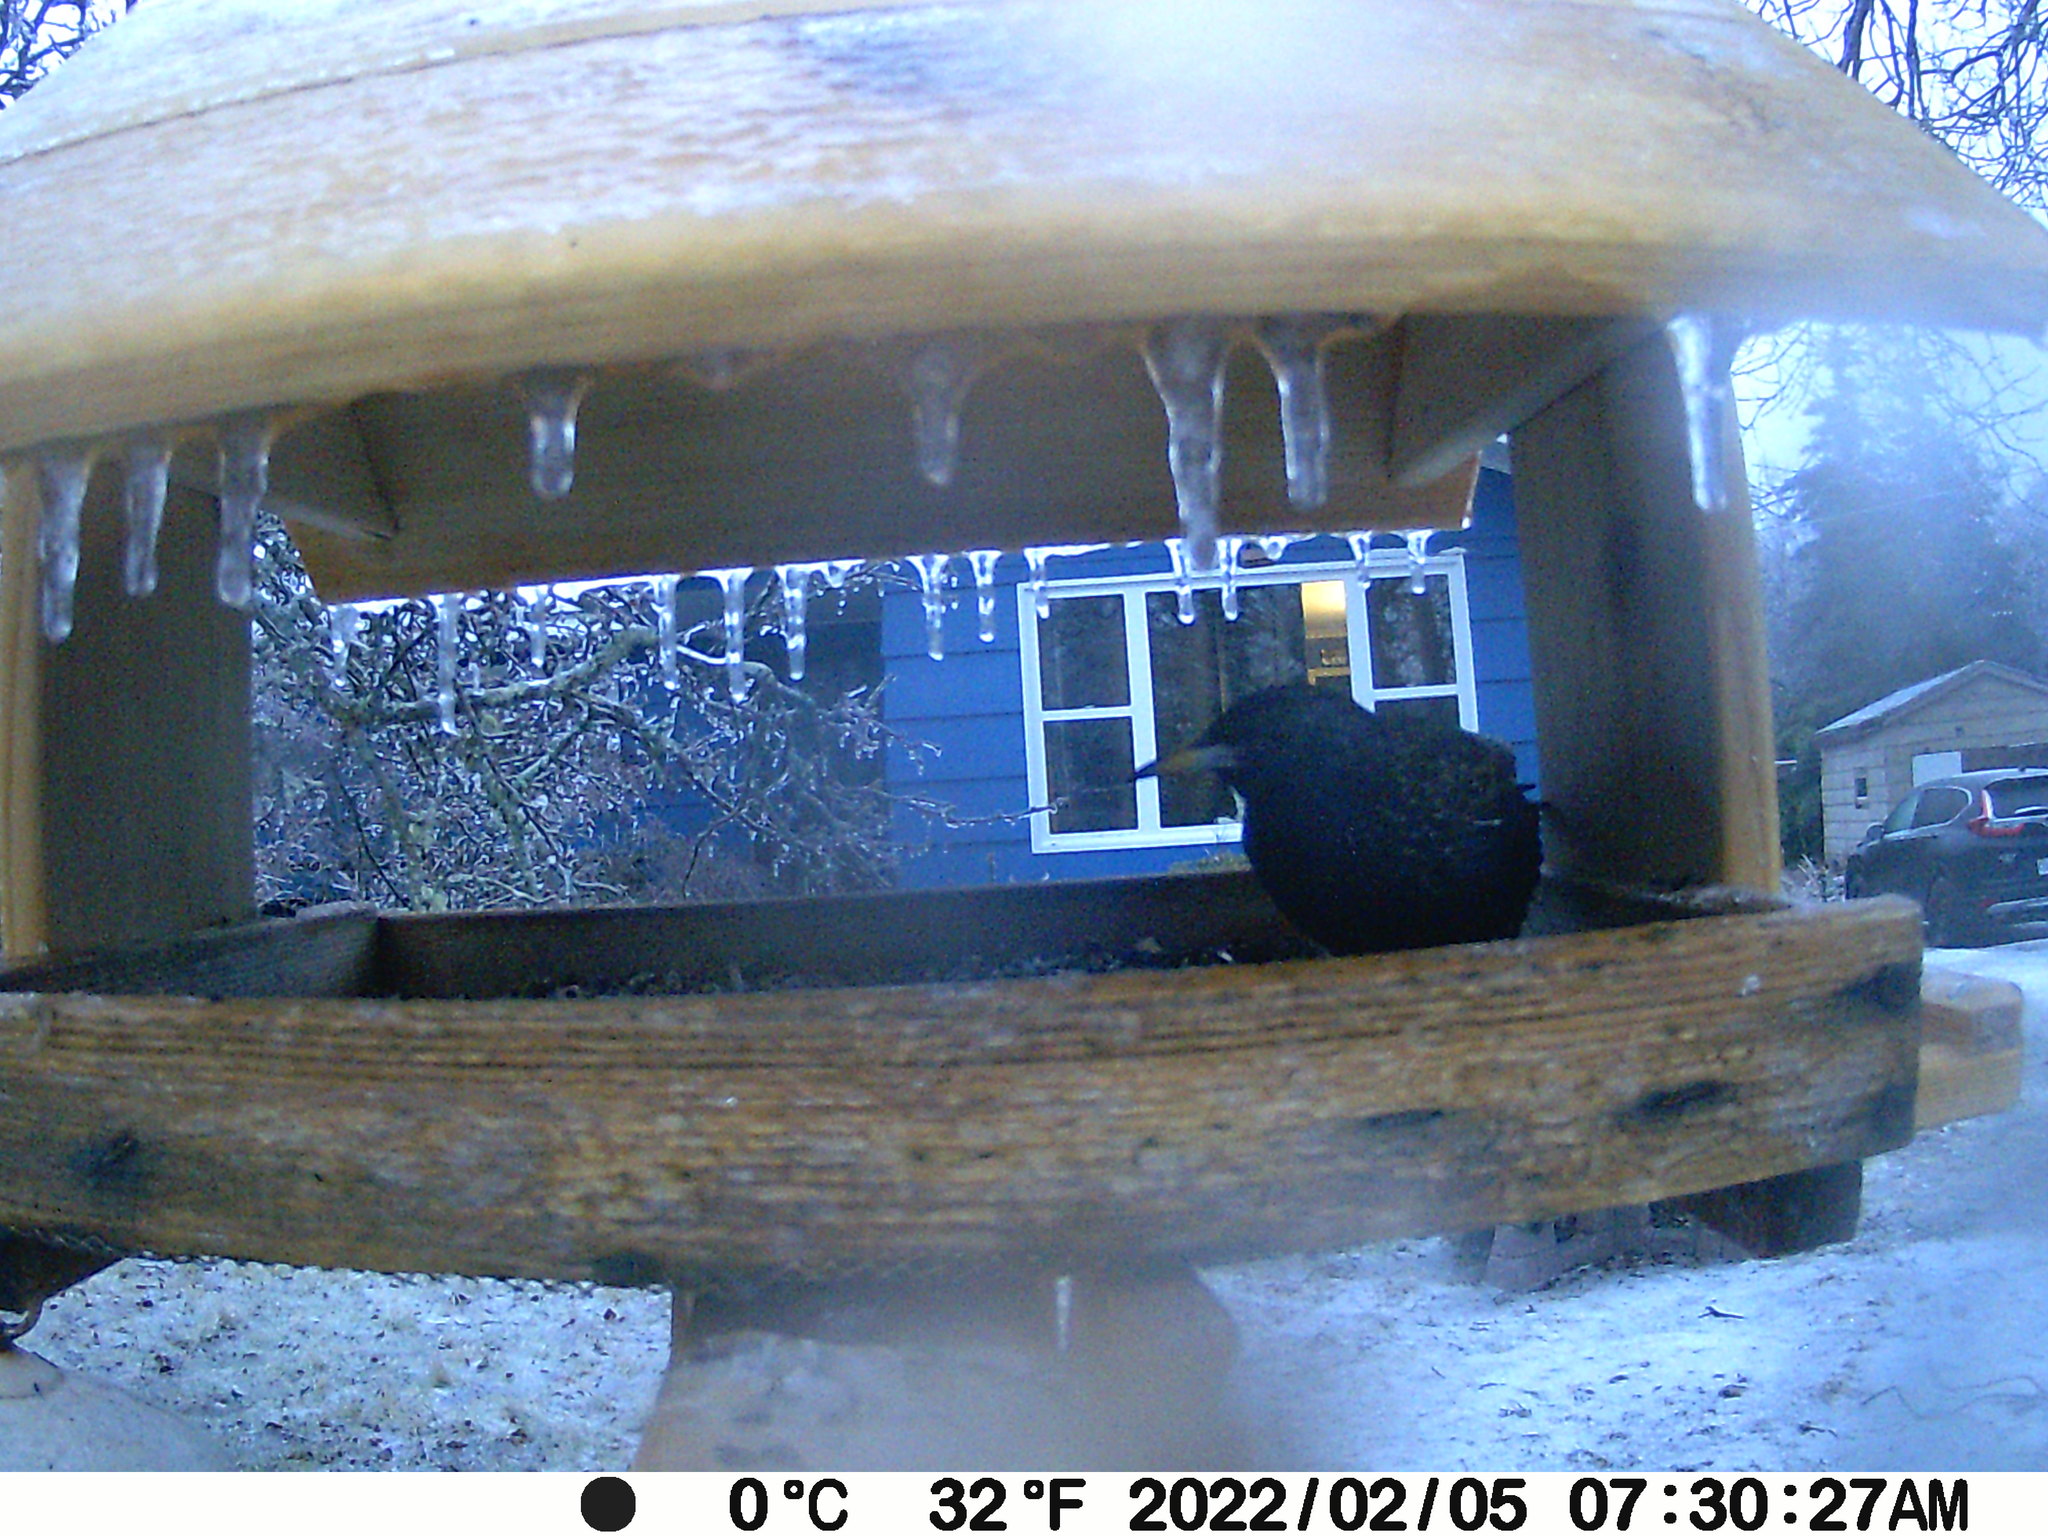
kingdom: Animalia
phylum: Chordata
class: Aves
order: Passeriformes
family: Sturnidae
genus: Sturnus
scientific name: Sturnus vulgaris
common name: Common starling
